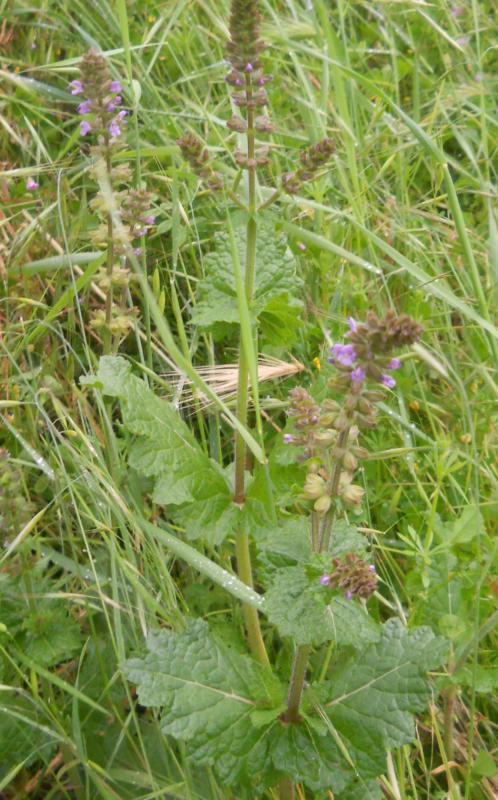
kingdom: Plantae
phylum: Tracheophyta
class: Magnoliopsida
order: Lamiales
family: Lamiaceae
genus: Salvia
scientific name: Salvia verbenaca
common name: Wild clary
